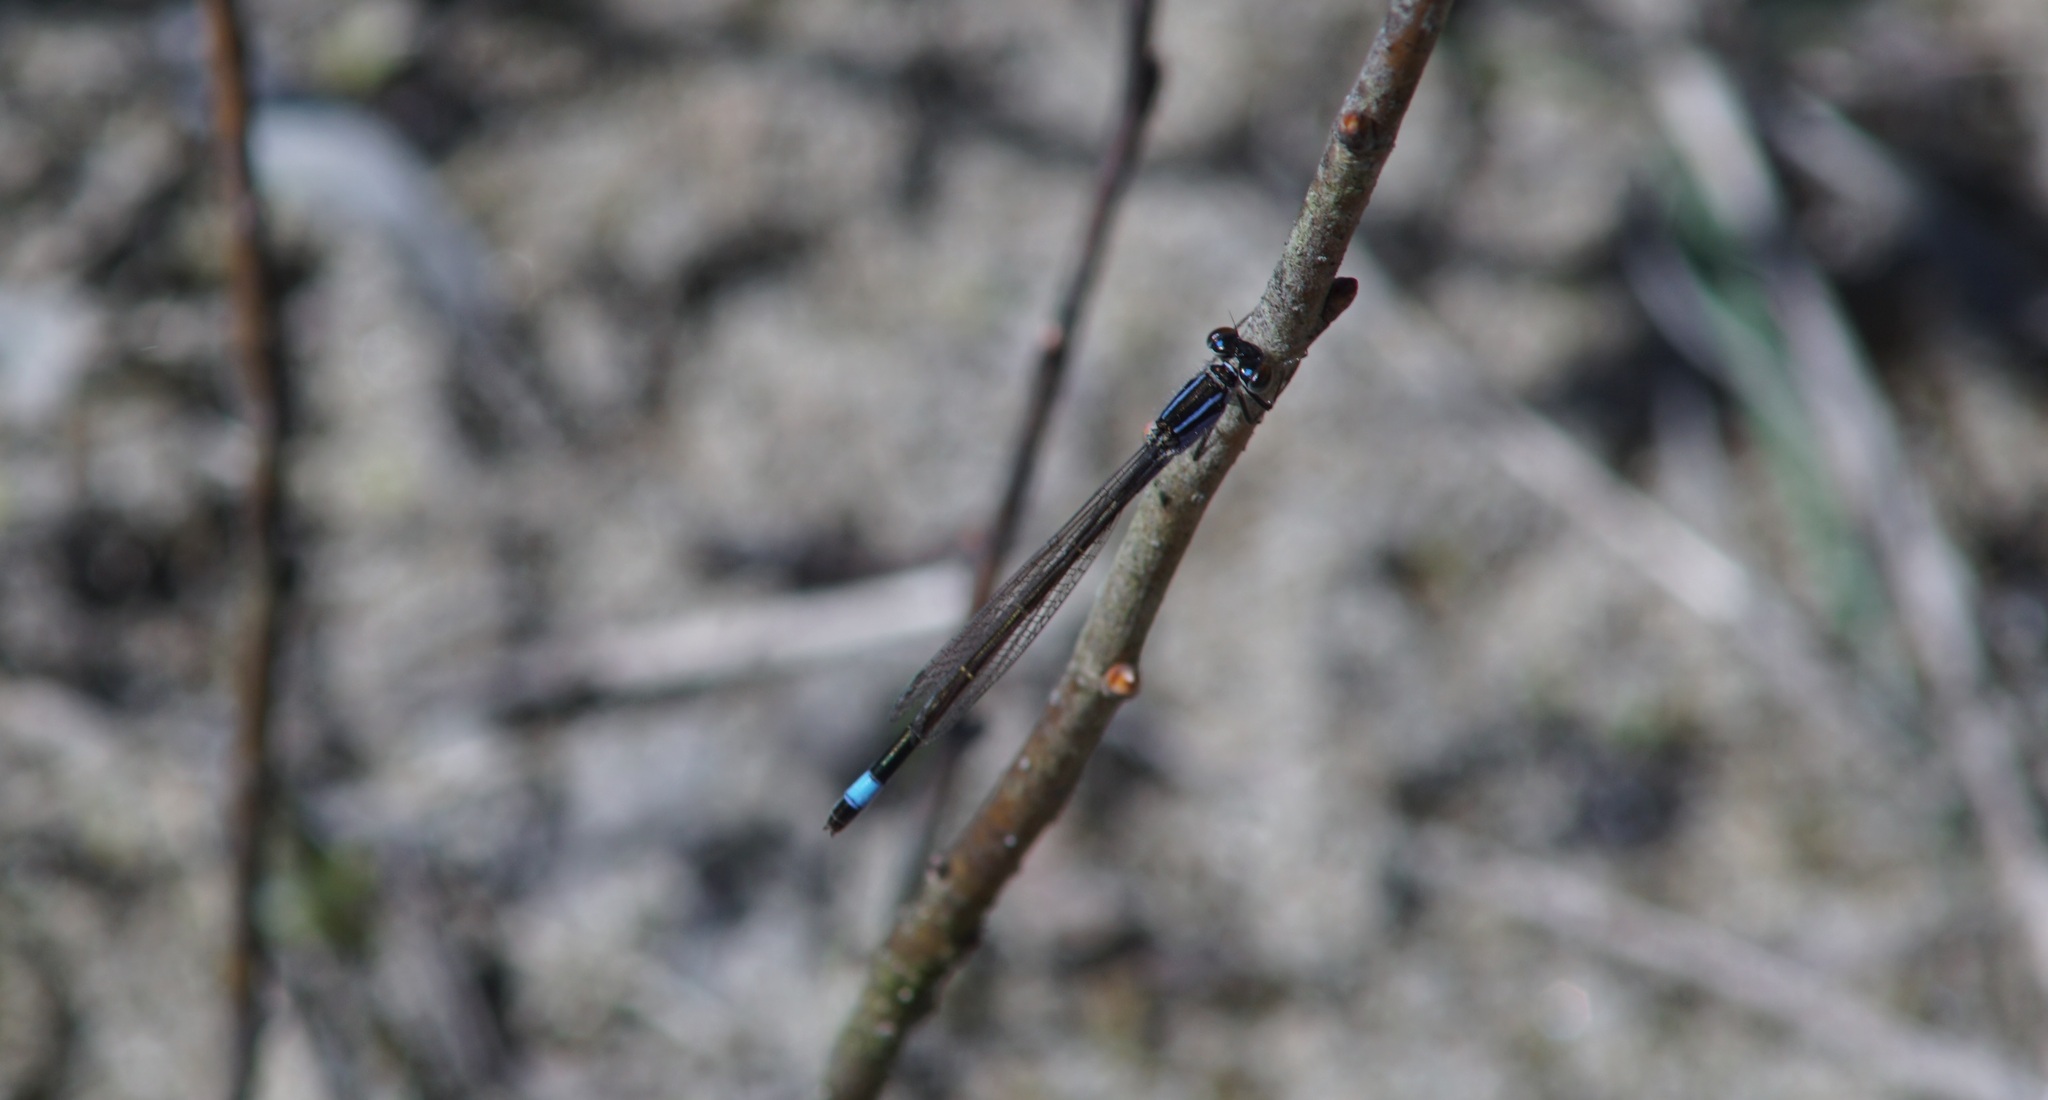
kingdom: Animalia
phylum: Arthropoda
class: Insecta
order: Odonata
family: Coenagrionidae
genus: Ischnura
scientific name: Ischnura elegans
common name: Blue-tailed damselfly
